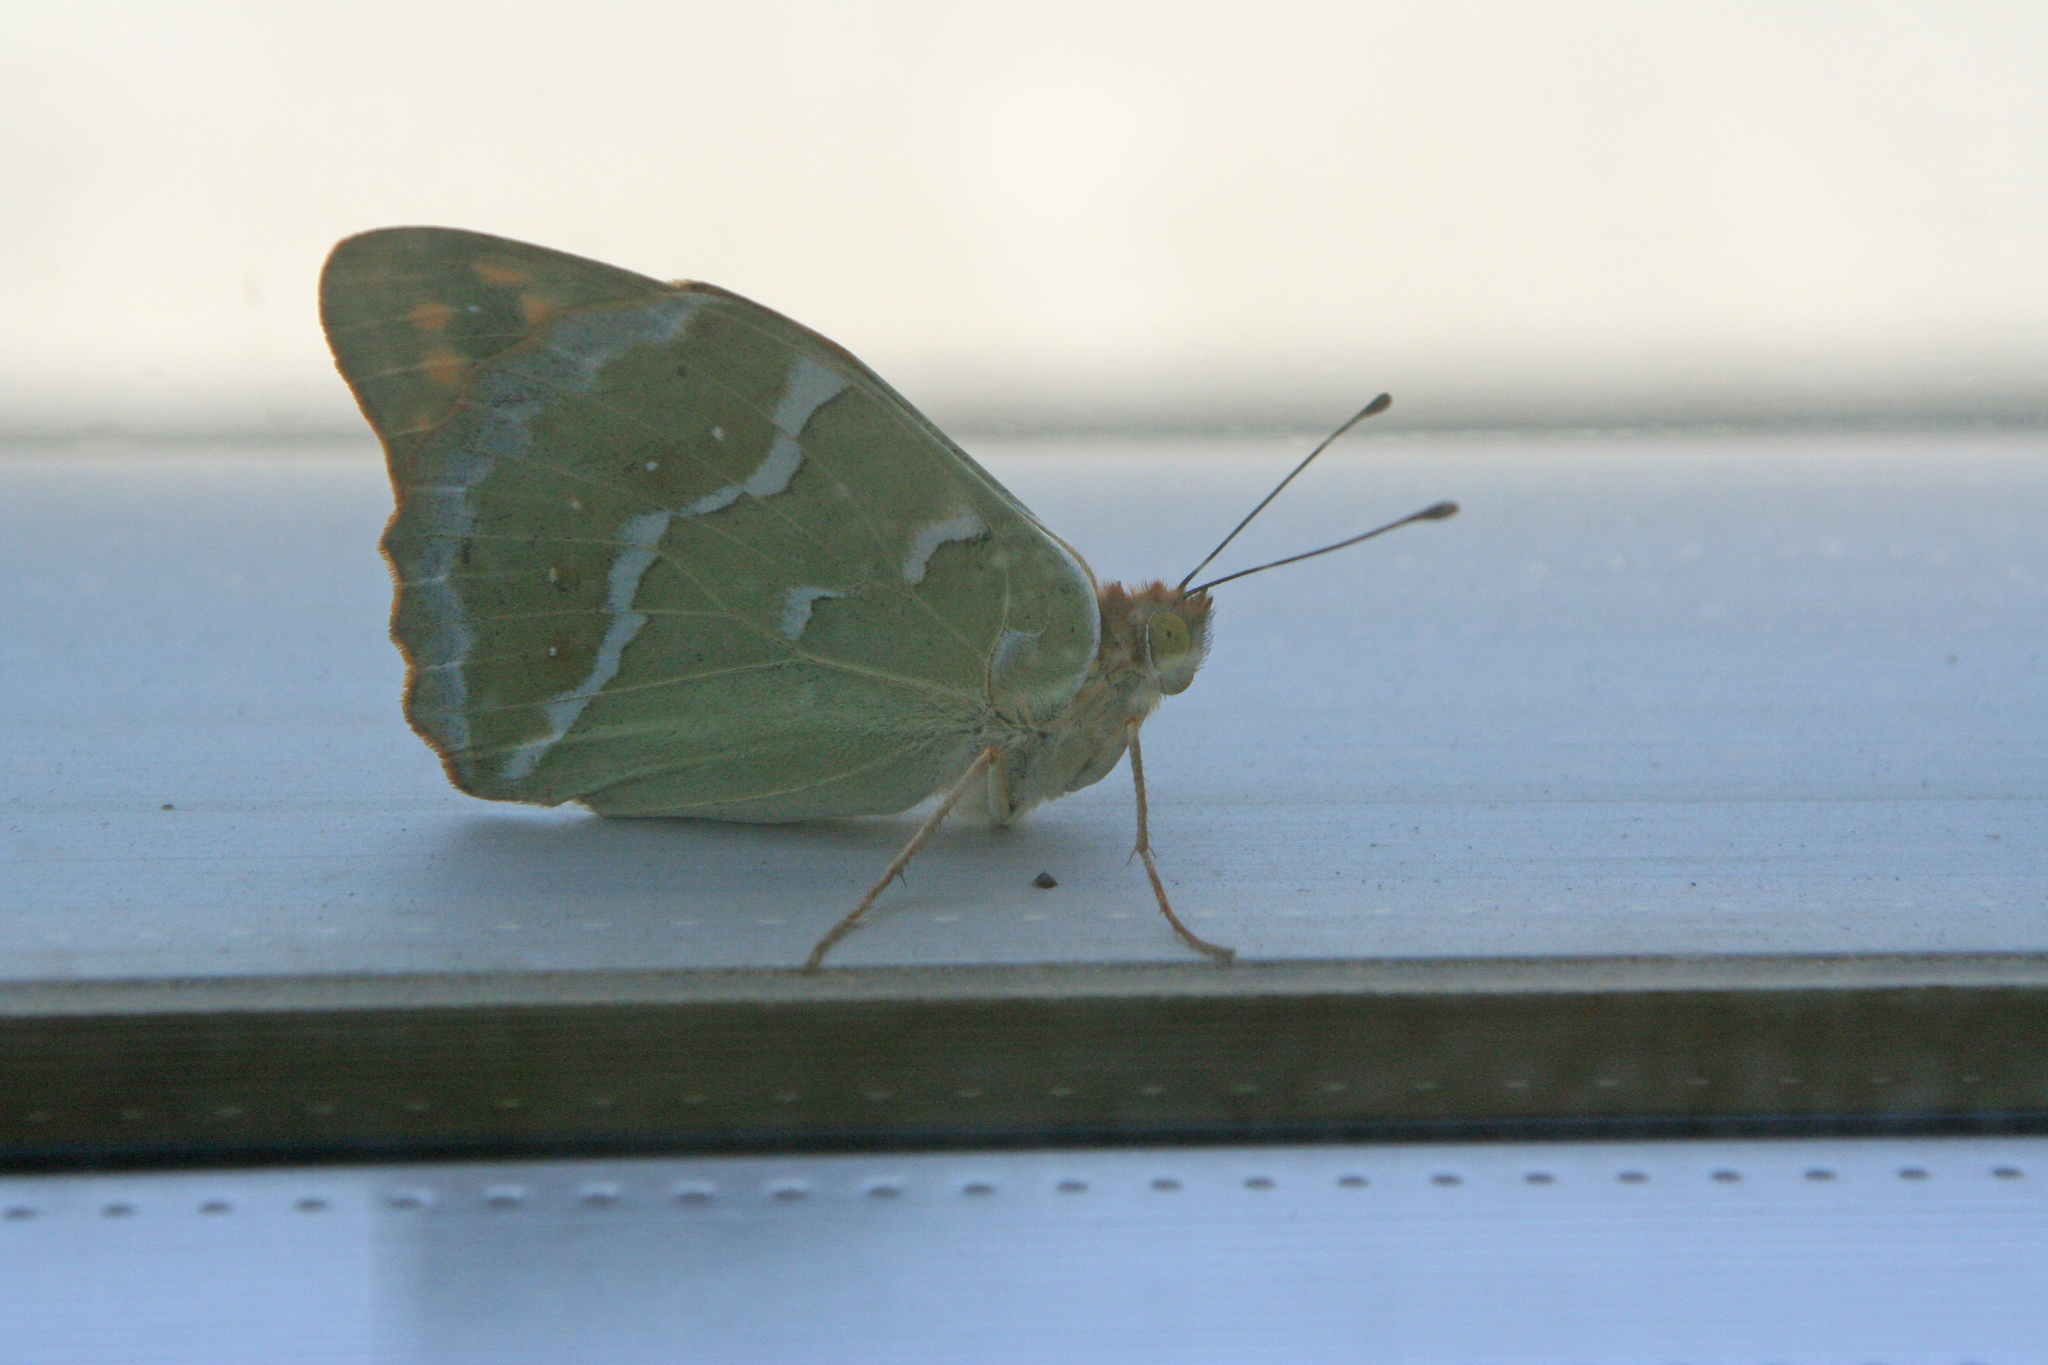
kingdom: Animalia
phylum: Arthropoda
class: Insecta
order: Lepidoptera
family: Nymphalidae
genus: Damora
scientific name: Damora pandora
